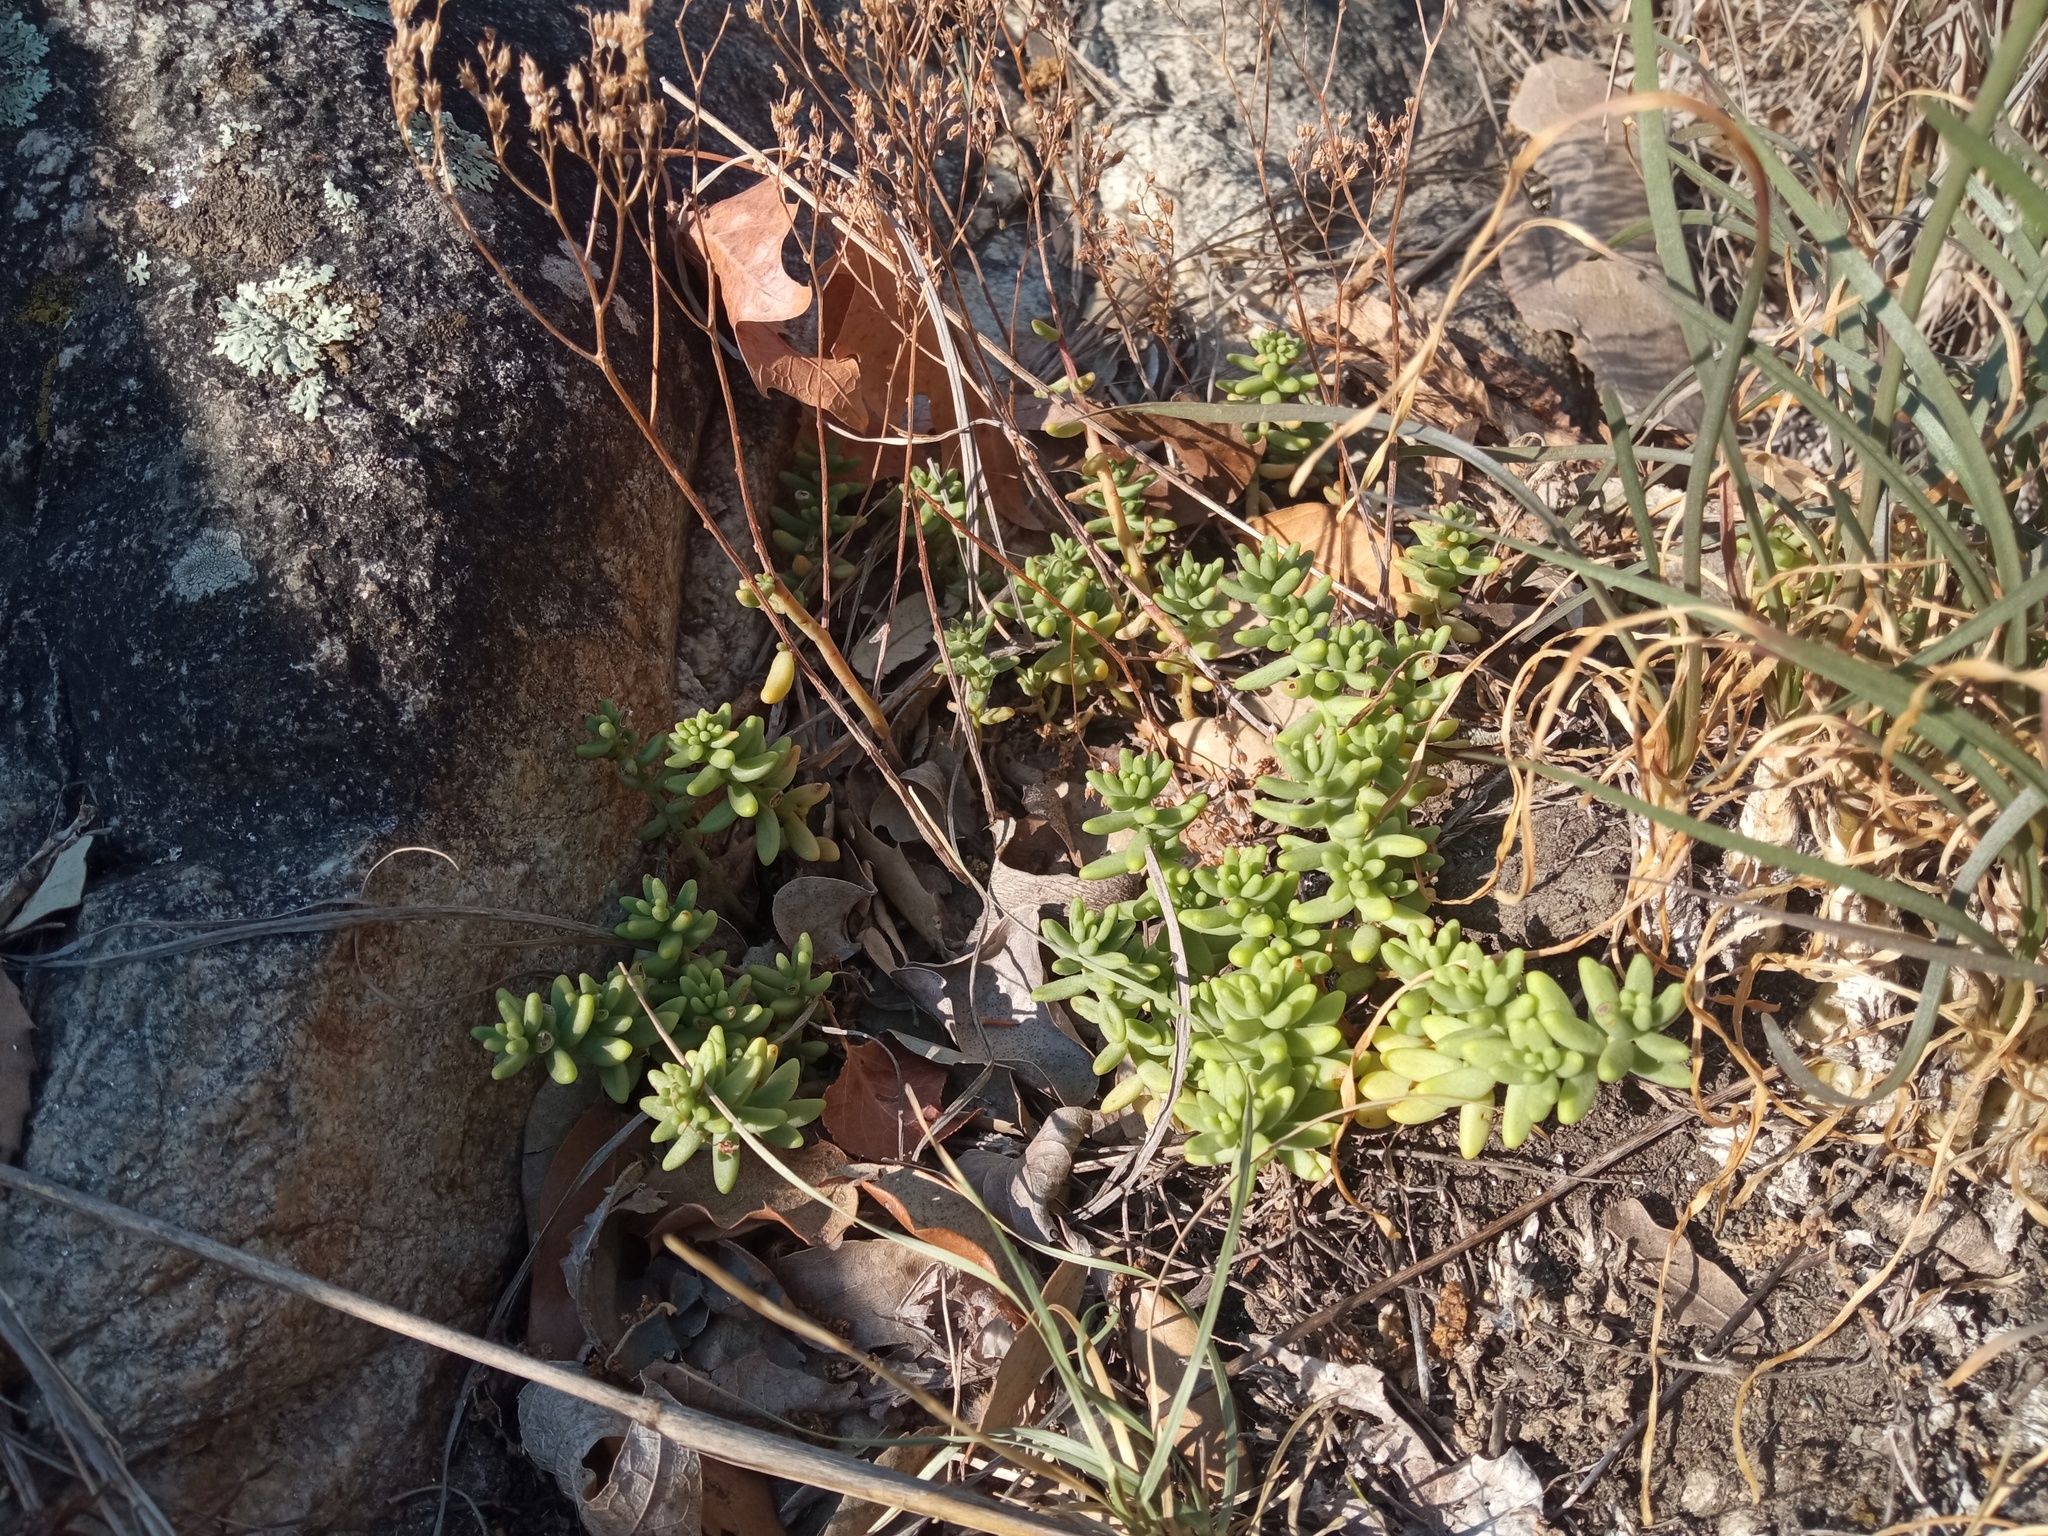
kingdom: Plantae
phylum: Tracheophyta
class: Magnoliopsida
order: Saxifragales
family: Crassulaceae
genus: Sedum
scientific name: Sedum album
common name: White stonecrop
